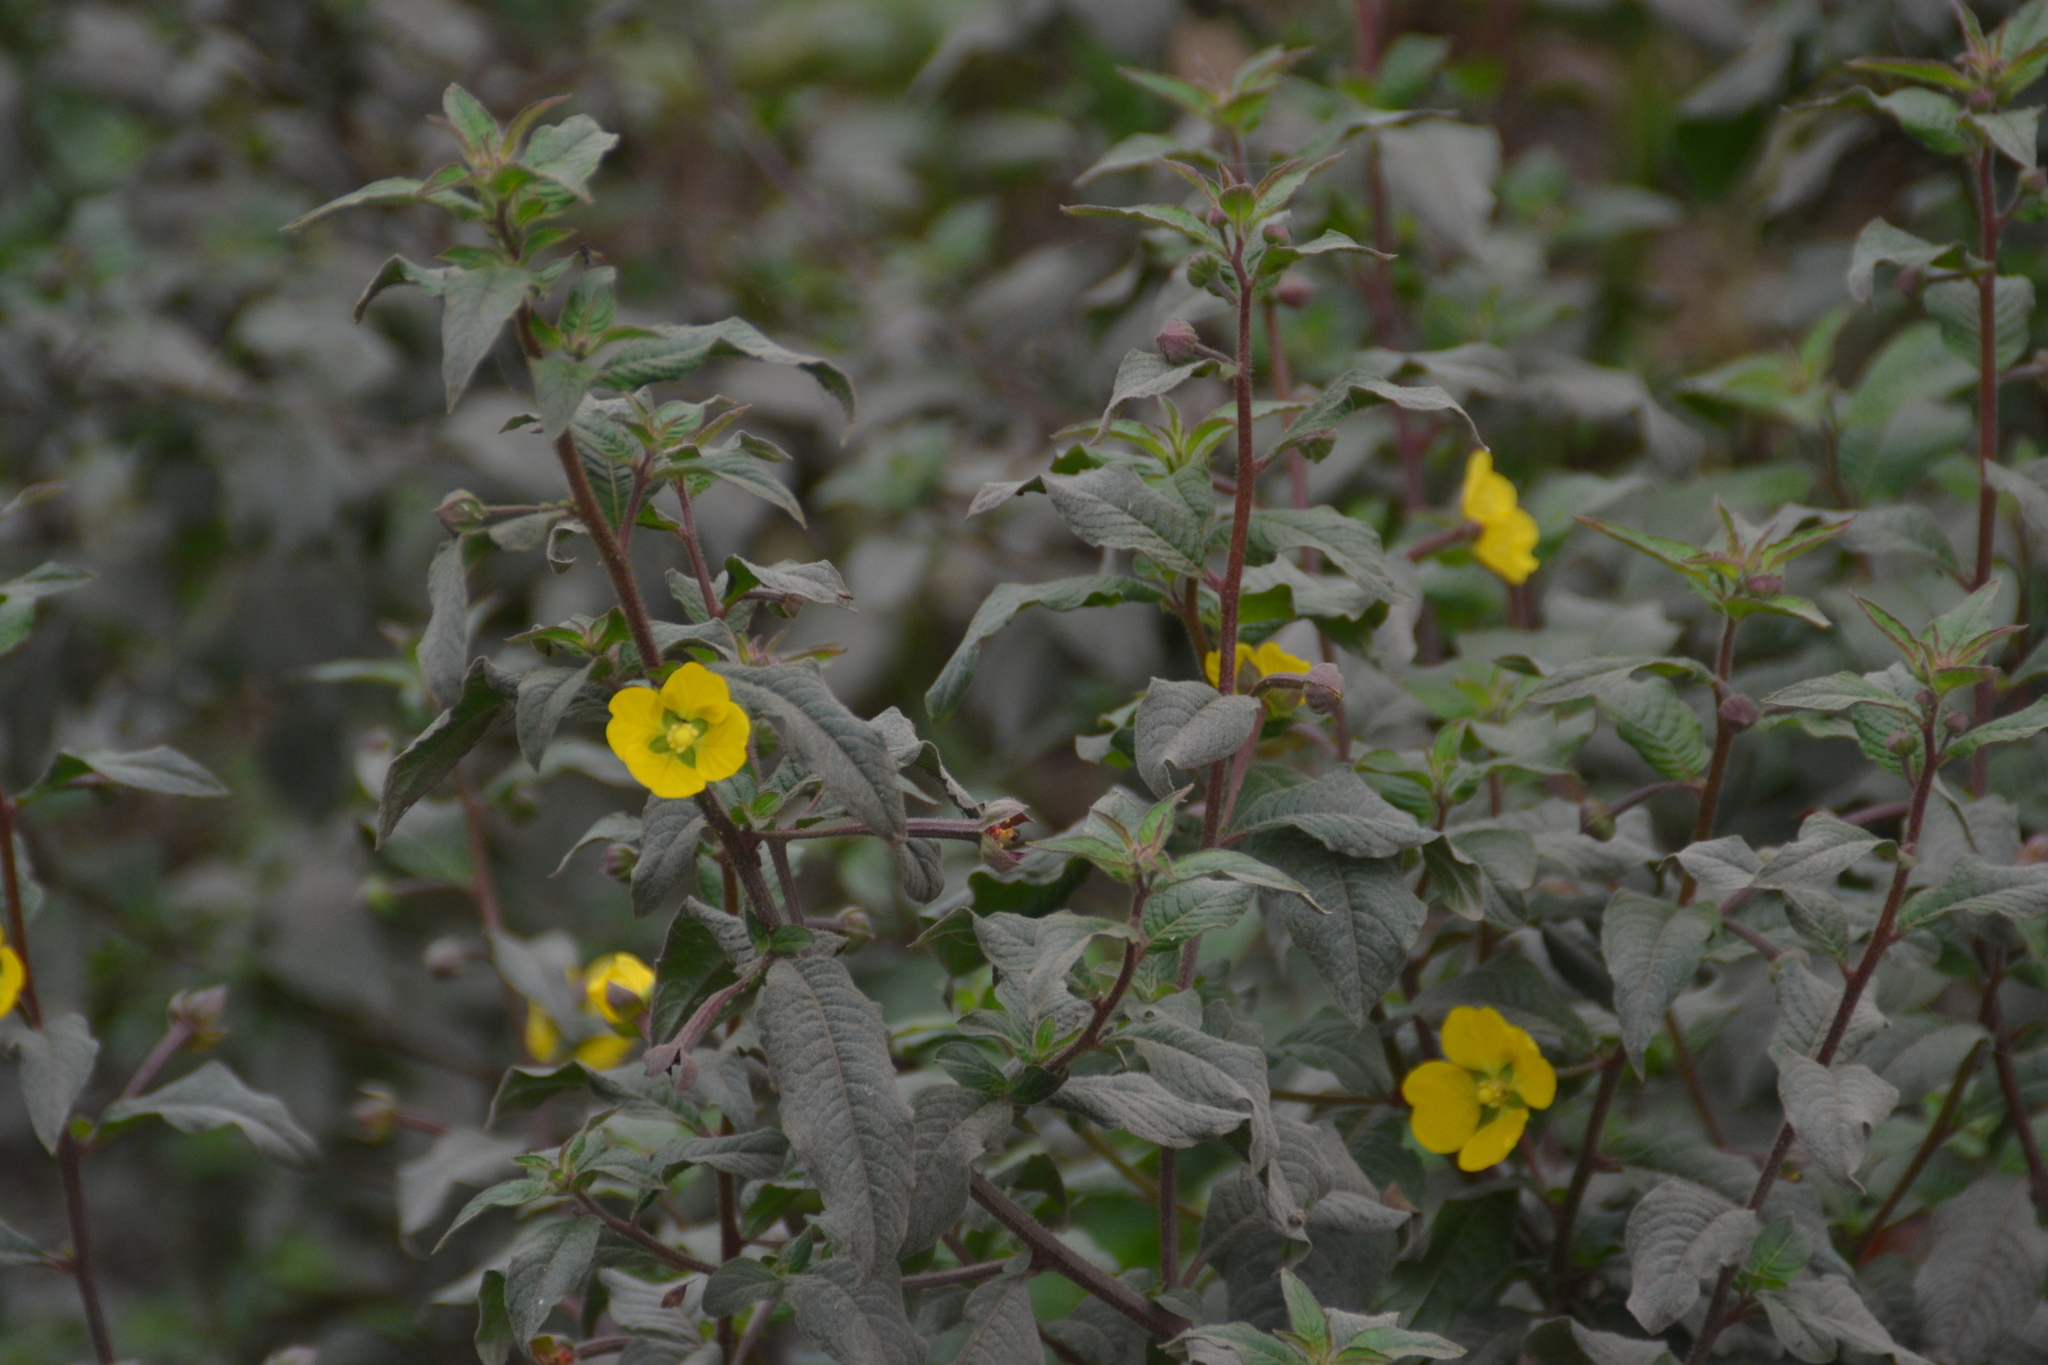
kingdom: Plantae
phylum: Tracheophyta
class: Magnoliopsida
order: Myrtales
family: Onagraceae
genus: Ludwigia
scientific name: Ludwigia peruviana
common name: Peruvian primrose-willow
